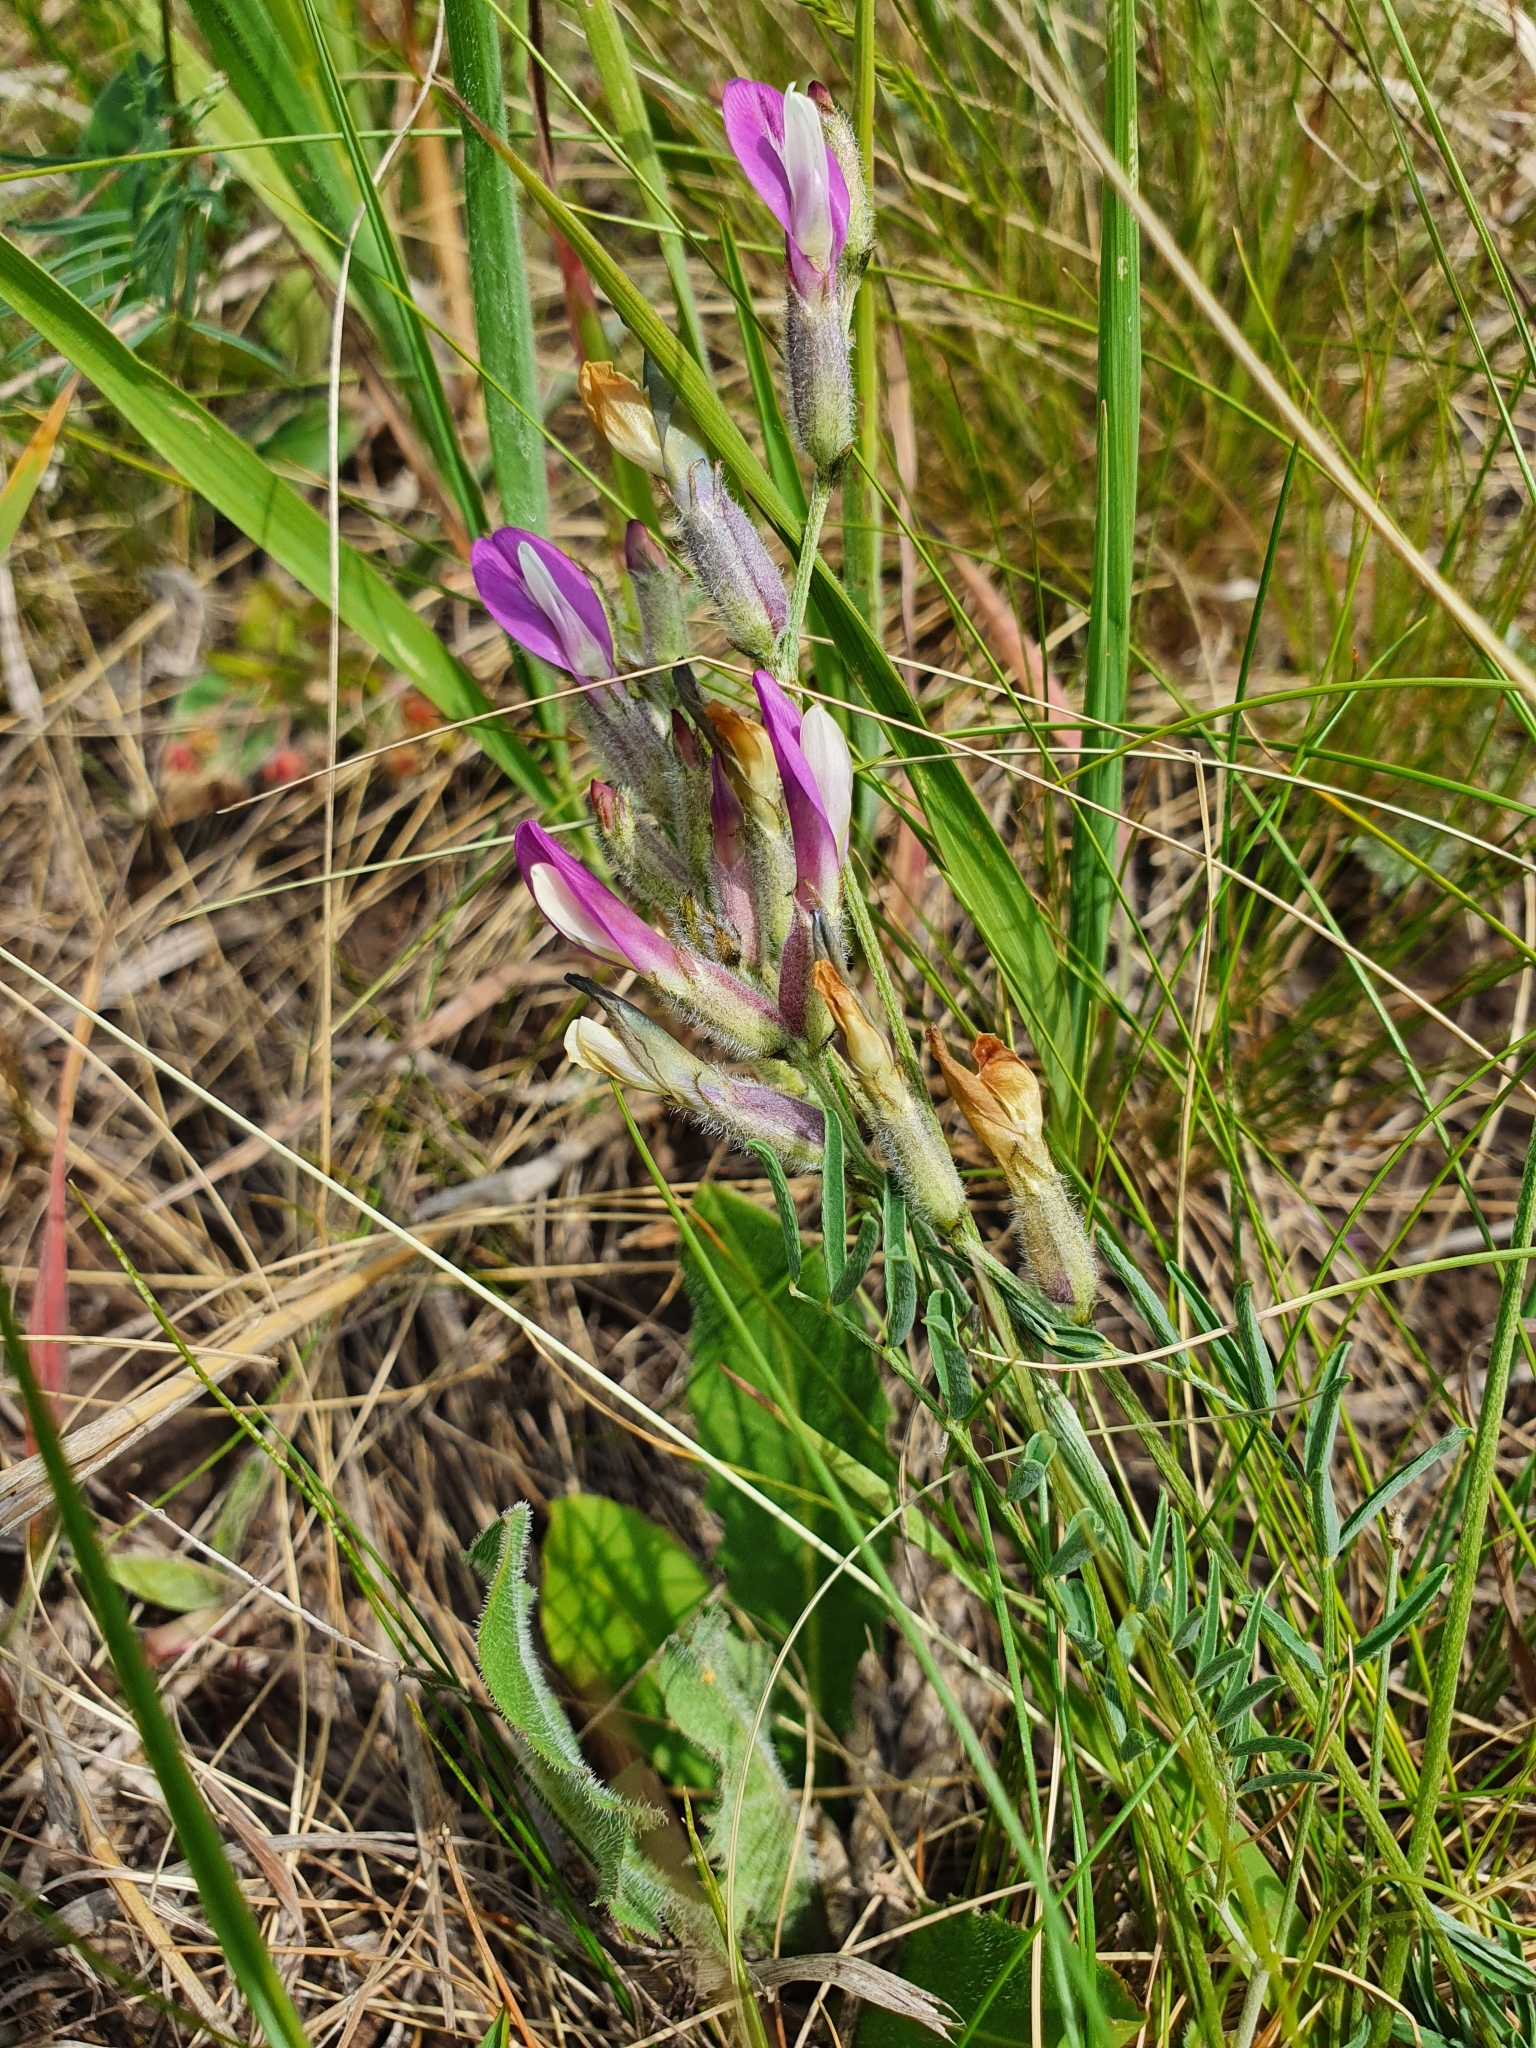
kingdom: Plantae
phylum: Tracheophyta
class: Magnoliopsida
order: Fabales
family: Fabaceae
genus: Astragalus
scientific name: Astragalus macropus
